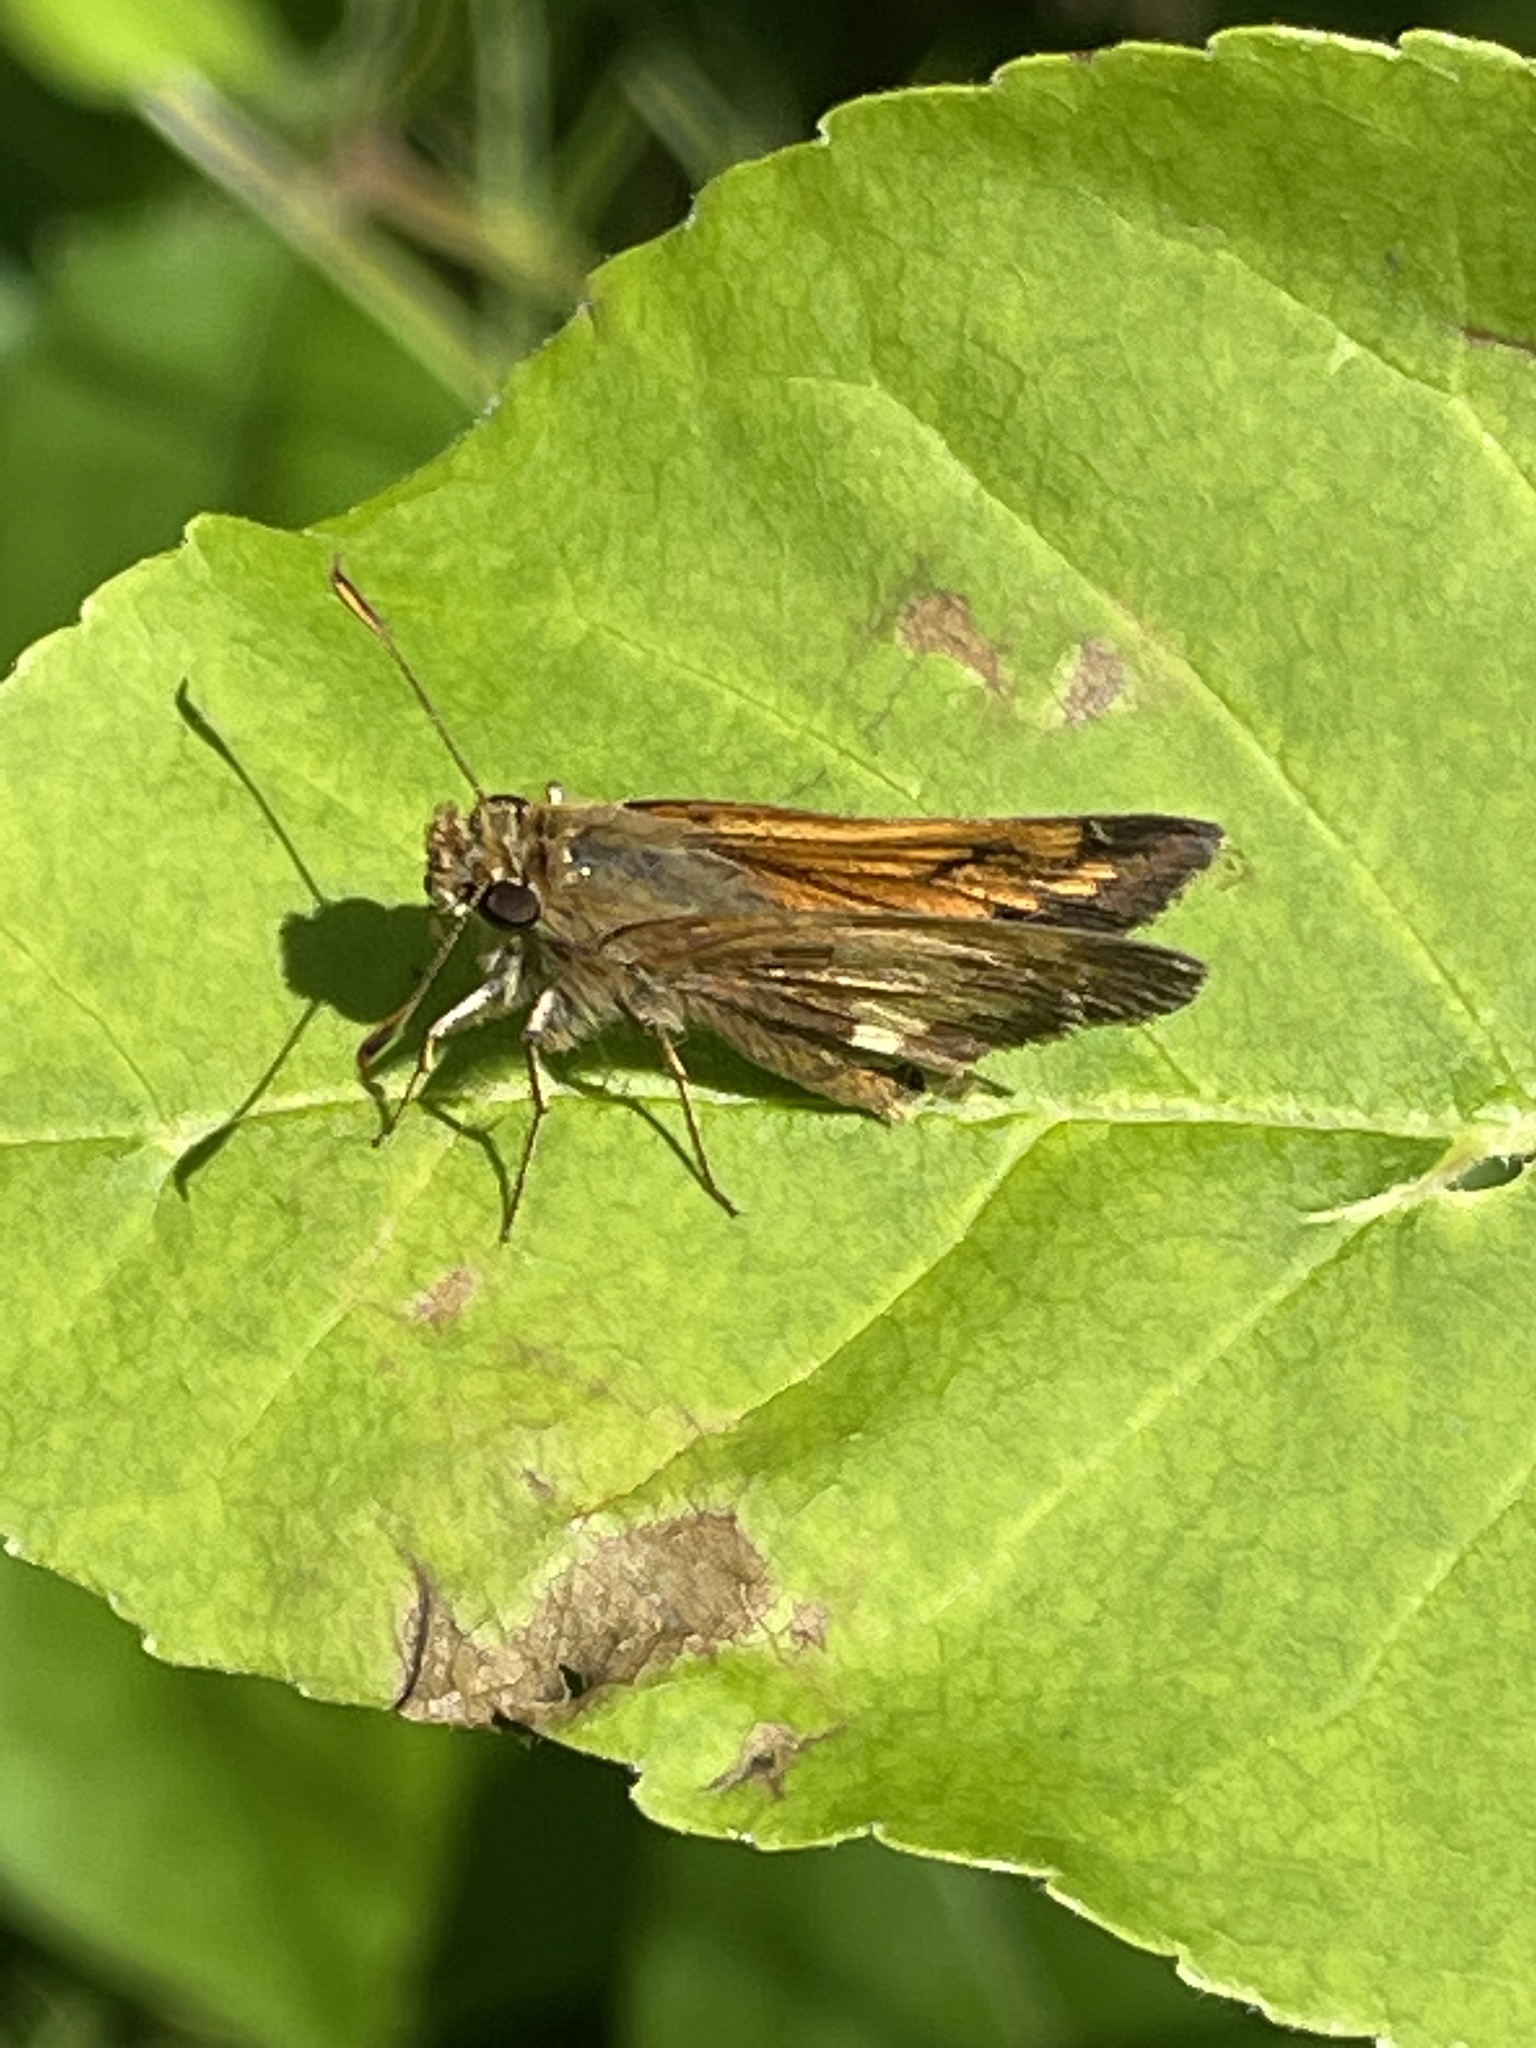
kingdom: Animalia
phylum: Arthropoda
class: Insecta
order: Lepidoptera
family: Hesperiidae
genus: Lon
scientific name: Lon hobomok
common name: Hobomok skipper
